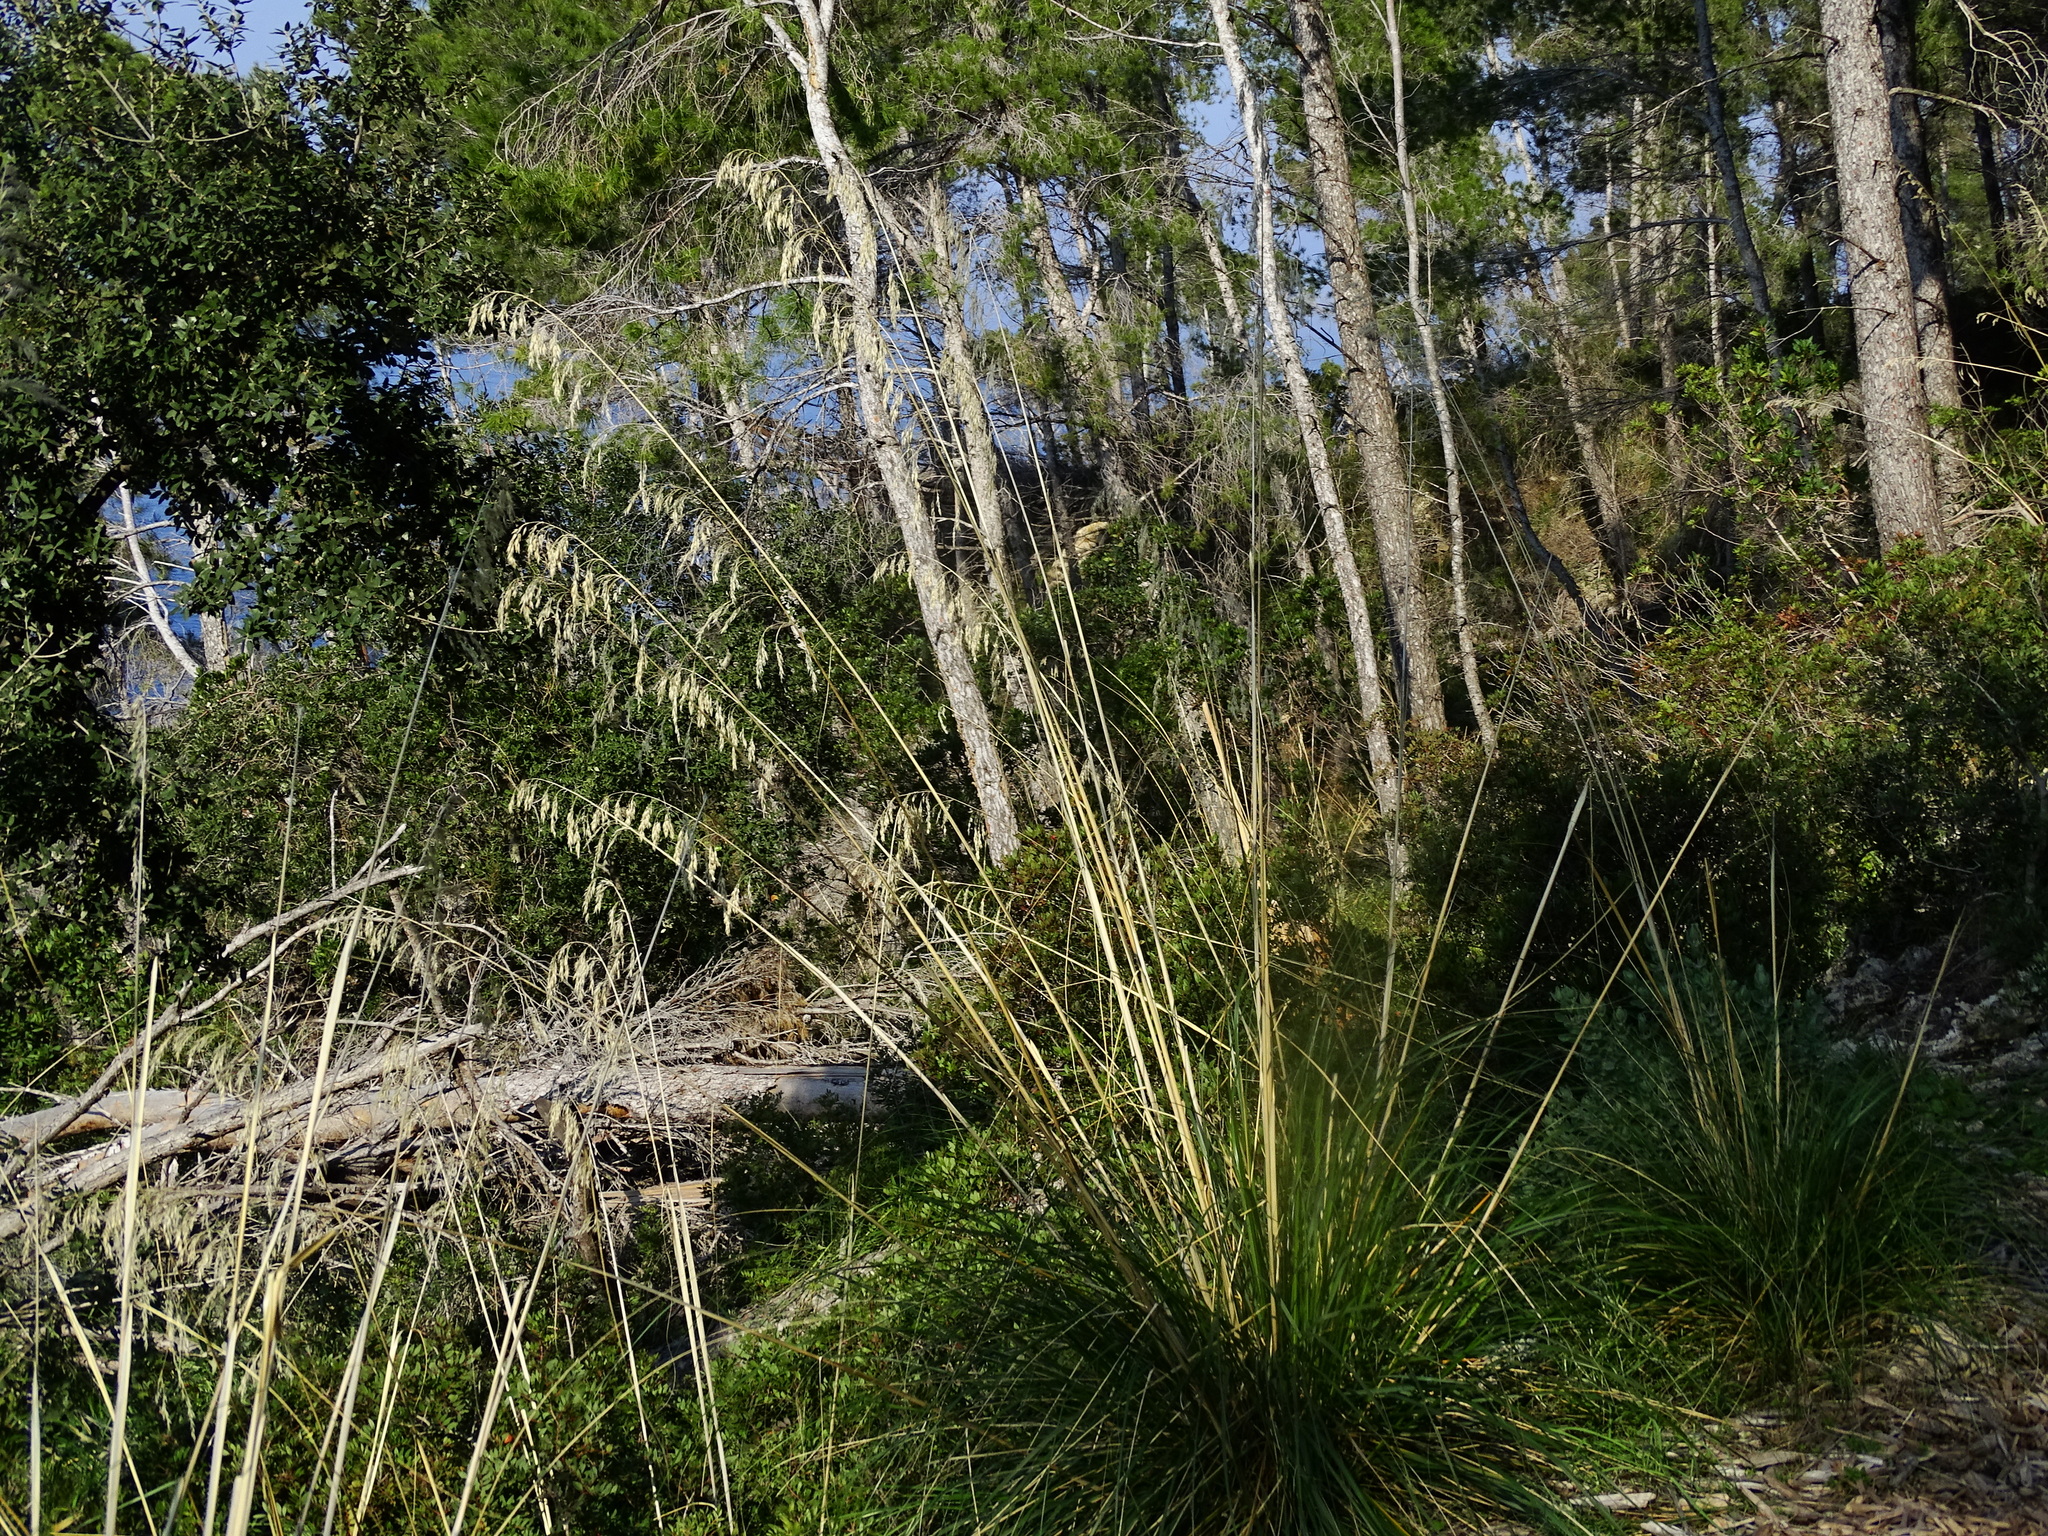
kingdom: Plantae
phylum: Tracheophyta
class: Liliopsida
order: Poales
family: Poaceae
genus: Ampelodesmos
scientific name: Ampelodesmos mauritanicus
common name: Mauritanian grass
